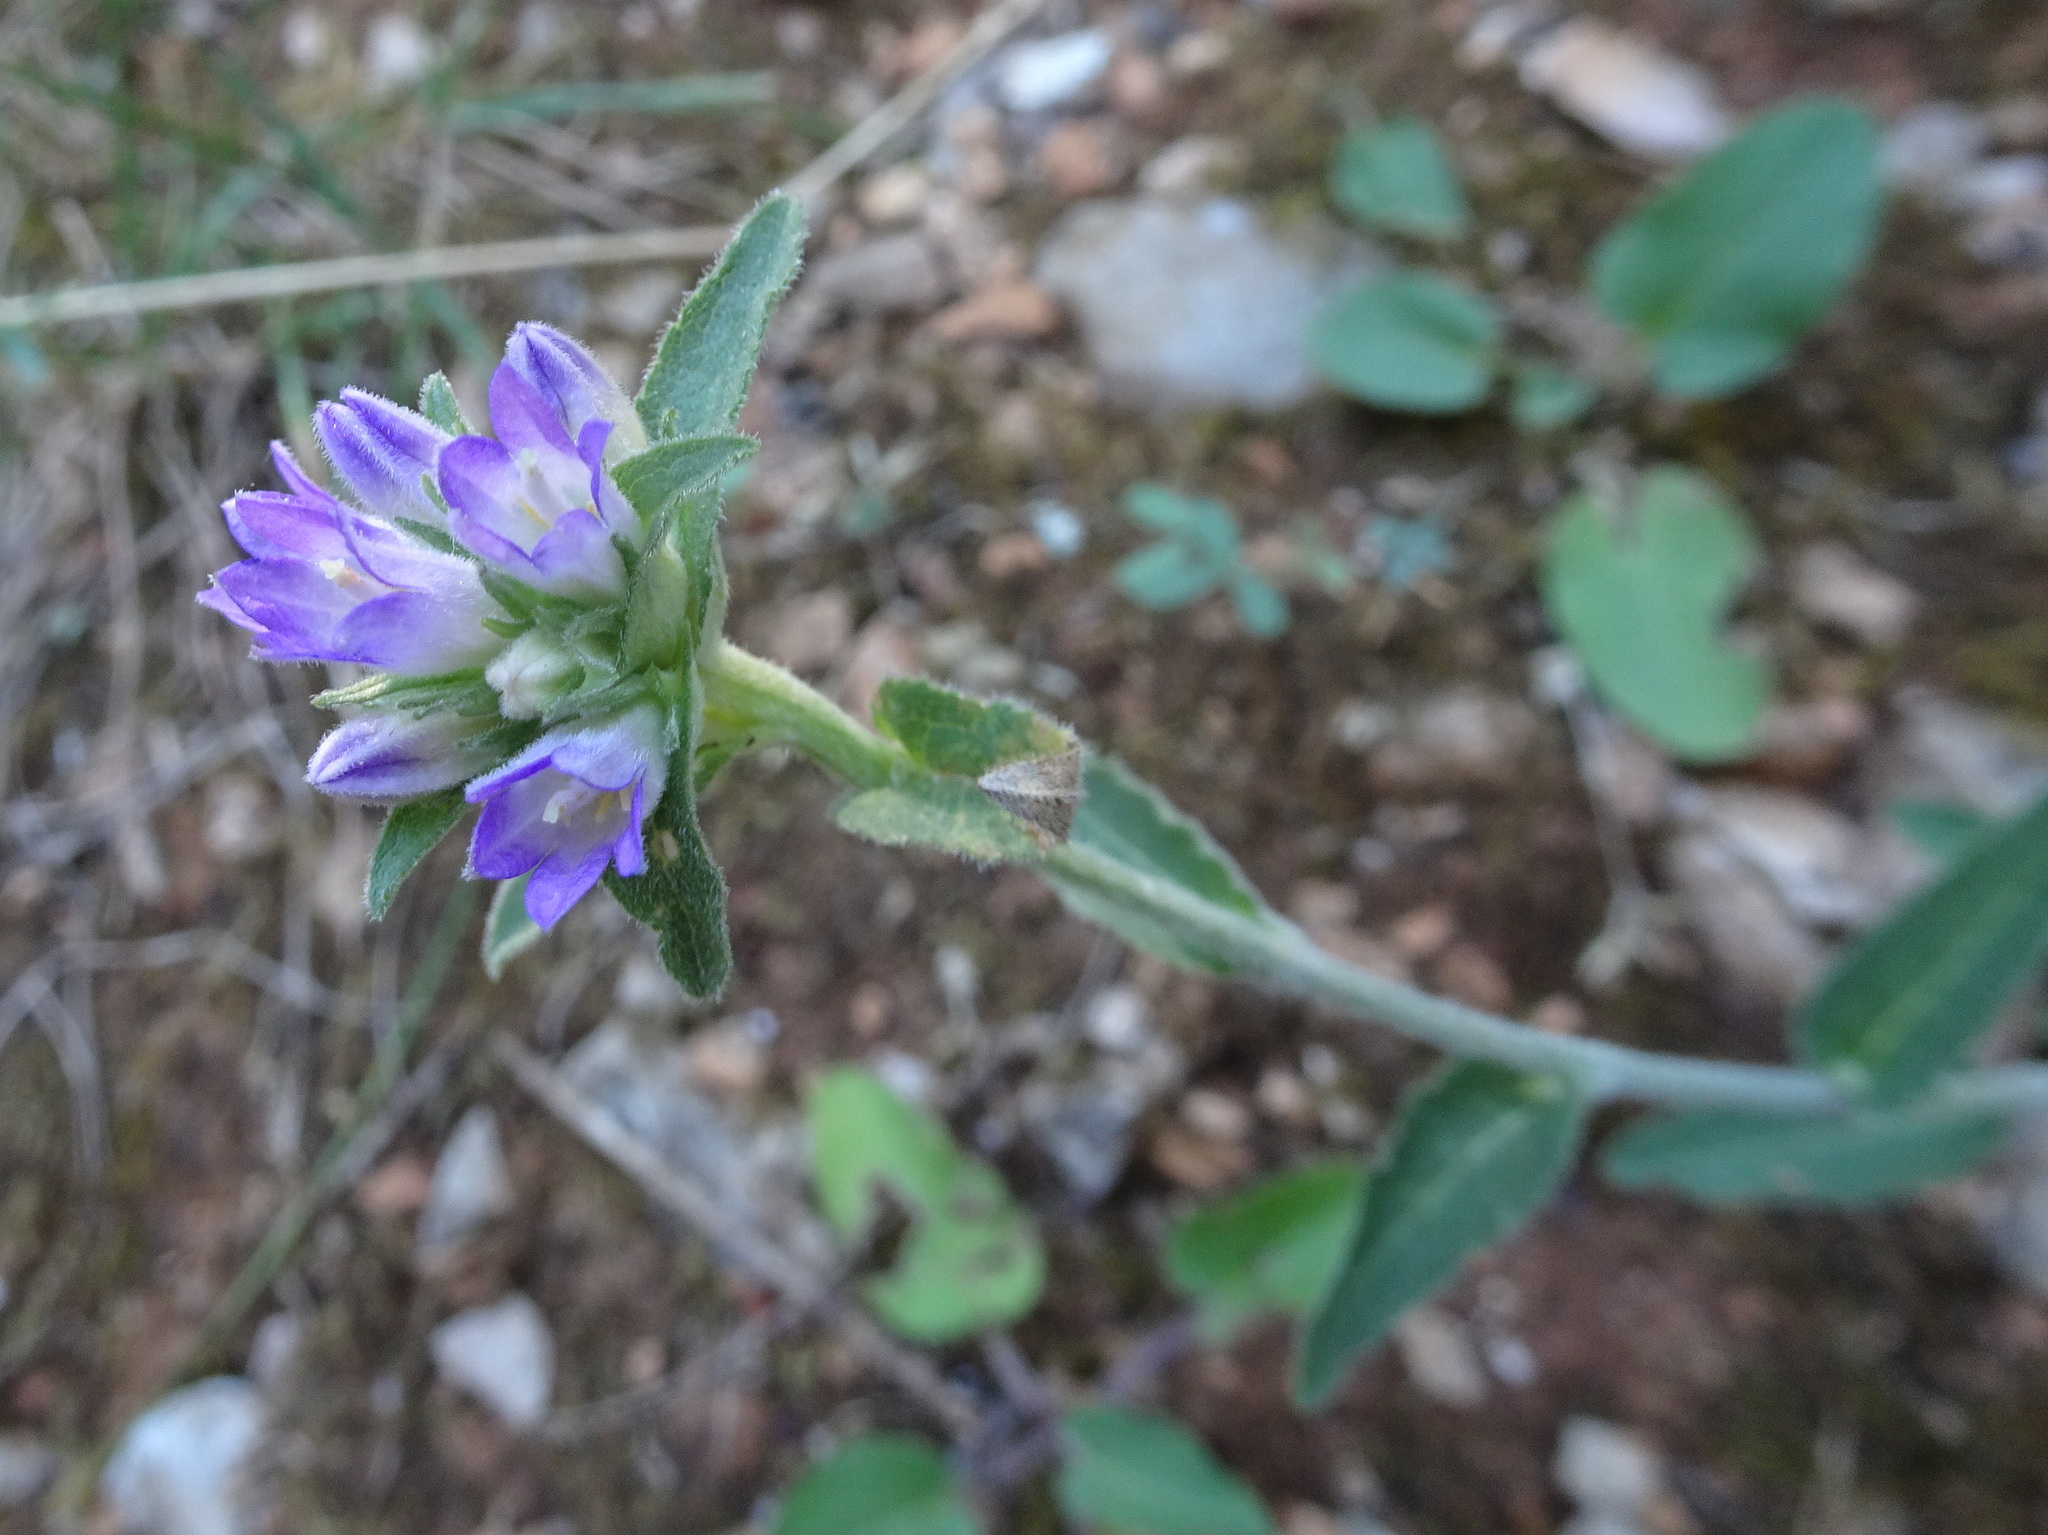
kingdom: Plantae
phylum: Tracheophyta
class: Magnoliopsida
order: Asterales
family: Campanulaceae
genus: Campanula
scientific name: Campanula glomerata
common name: Clustered bellflower
